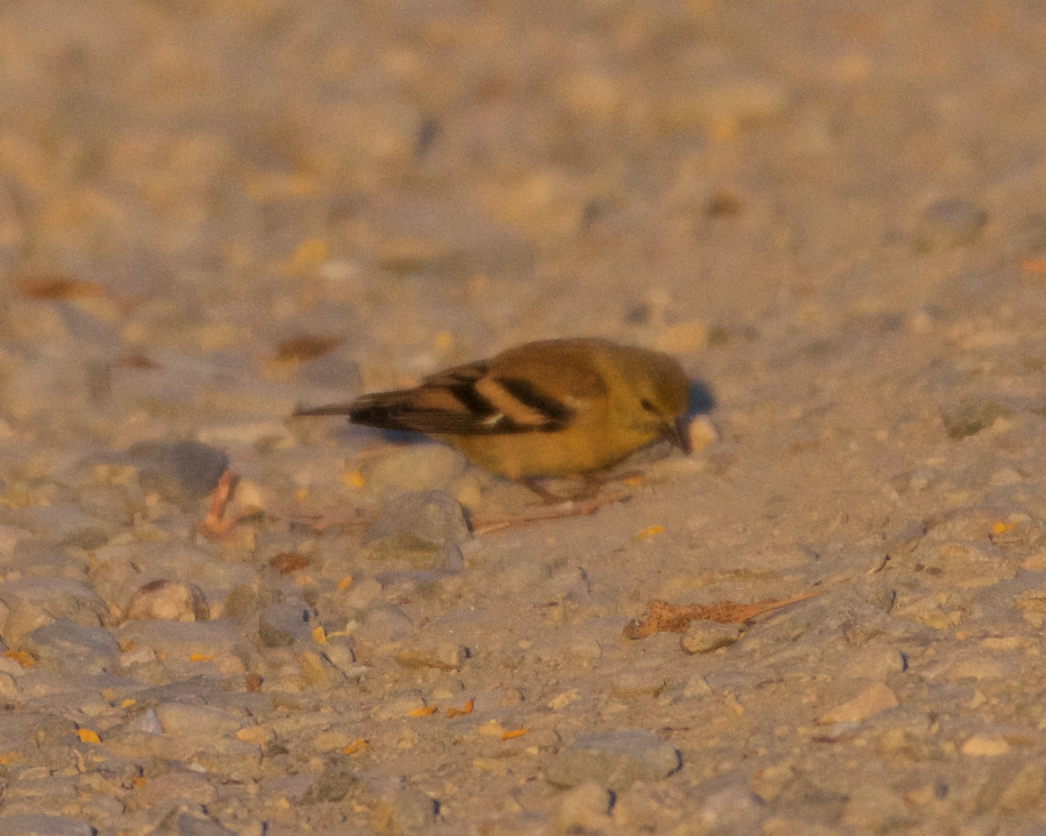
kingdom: Animalia
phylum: Chordata
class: Aves
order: Passeriformes
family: Fringillidae
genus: Spinus
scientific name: Spinus tristis
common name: American goldfinch
